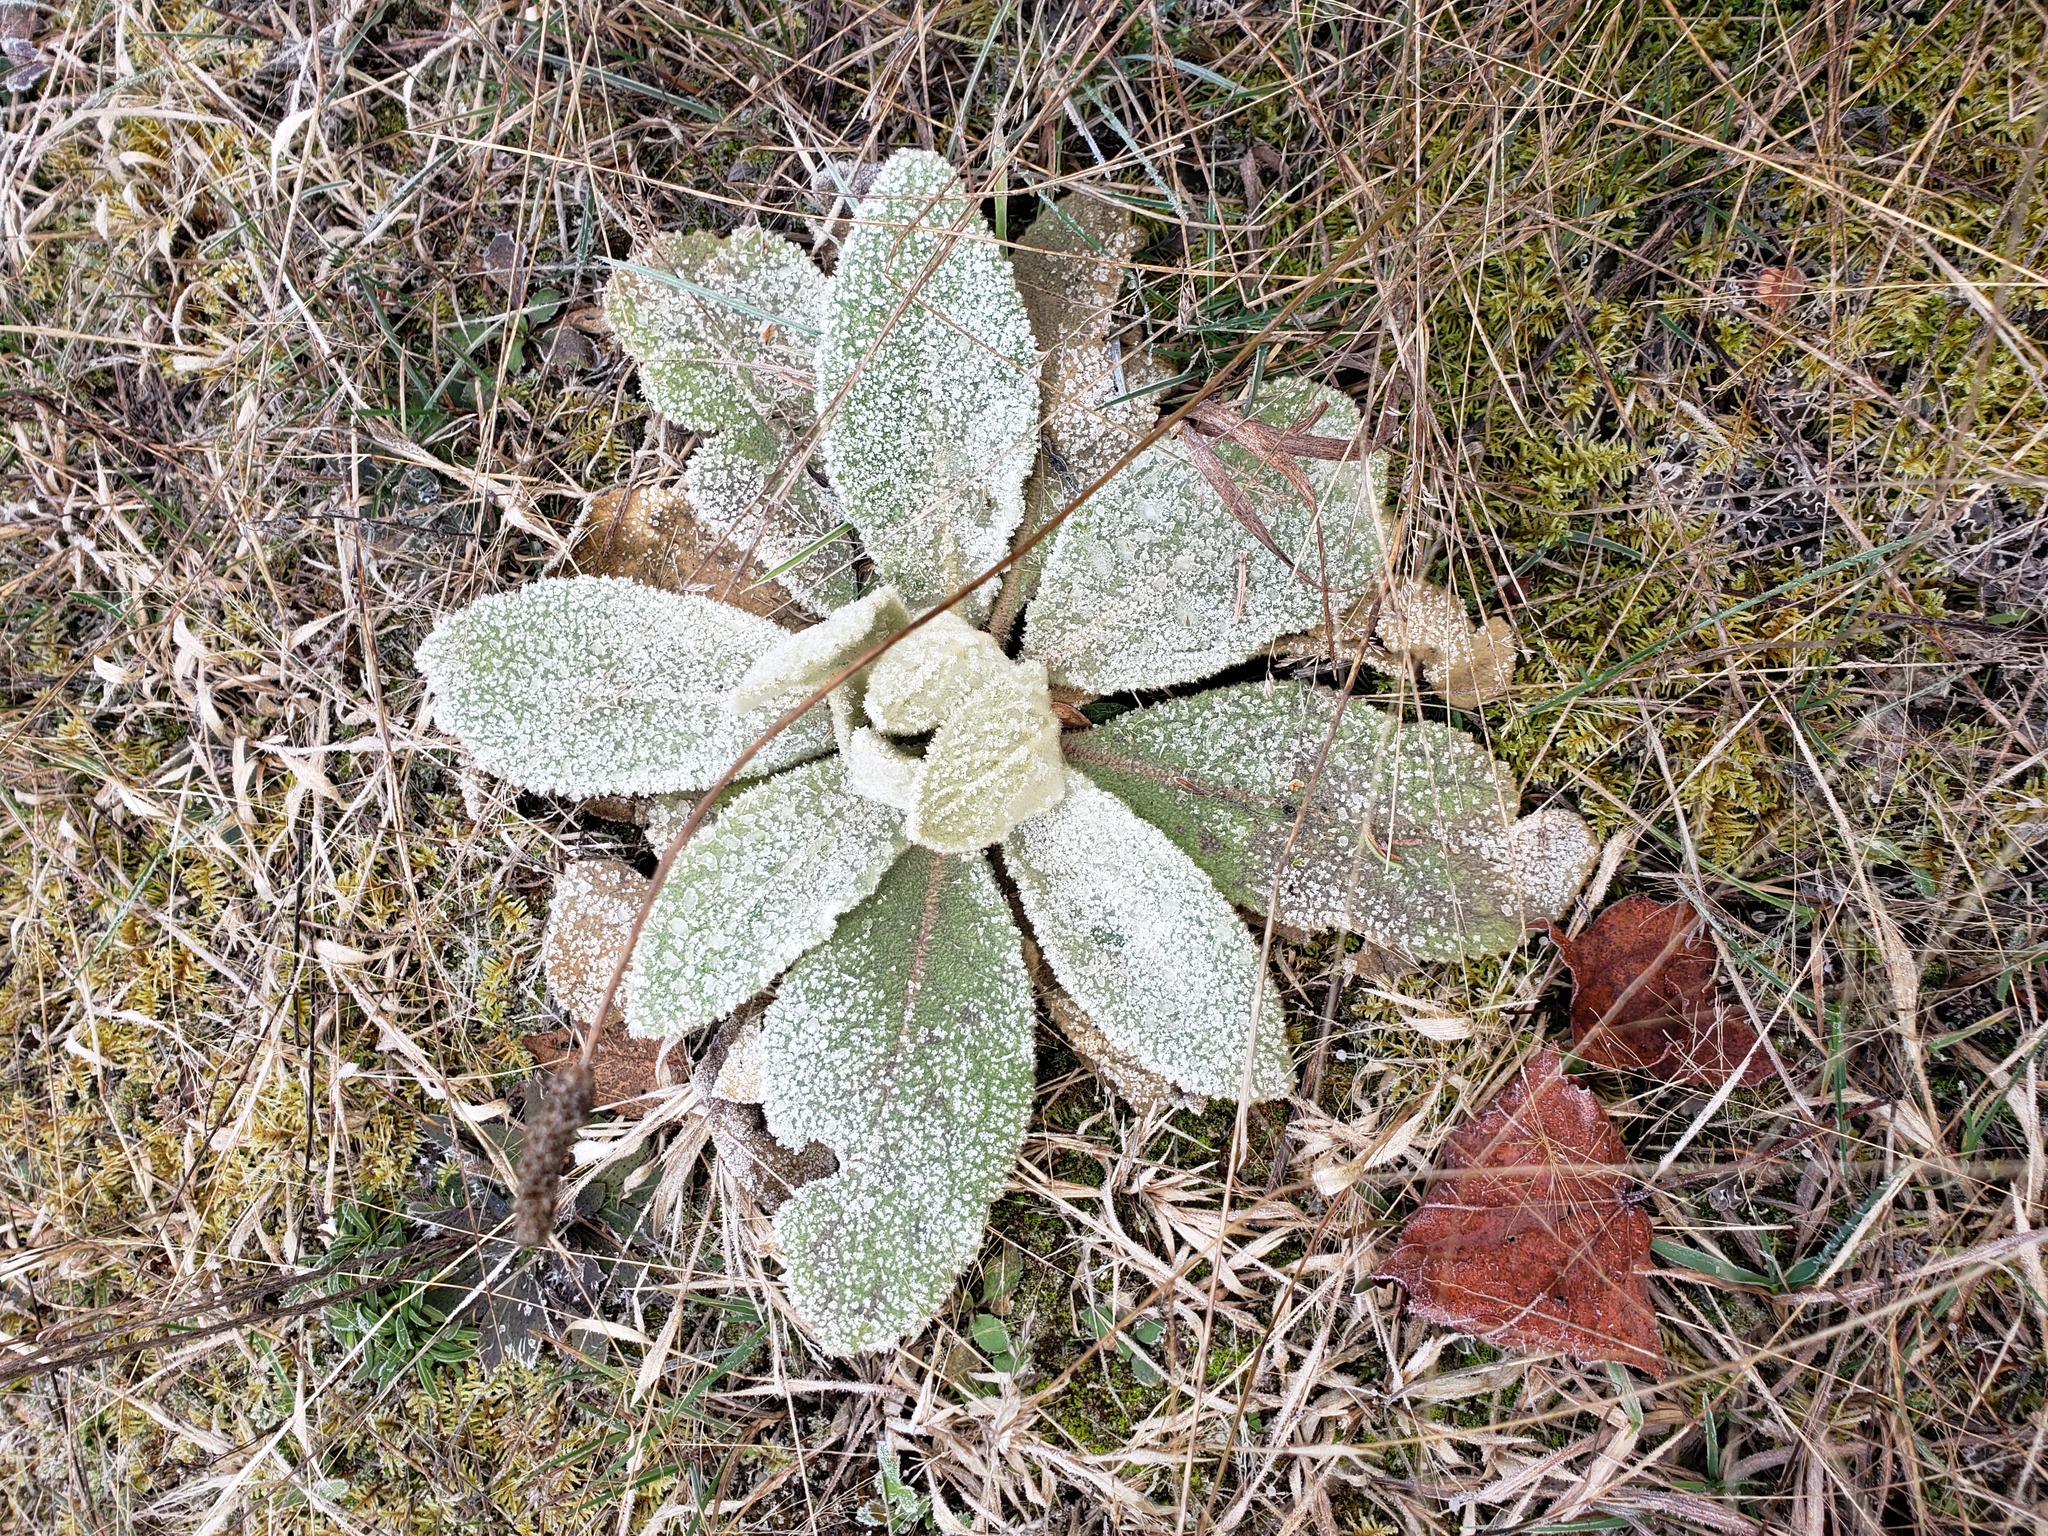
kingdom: Plantae
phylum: Tracheophyta
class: Magnoliopsida
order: Lamiales
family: Scrophulariaceae
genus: Verbascum
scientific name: Verbascum thapsus
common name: Common mullein
